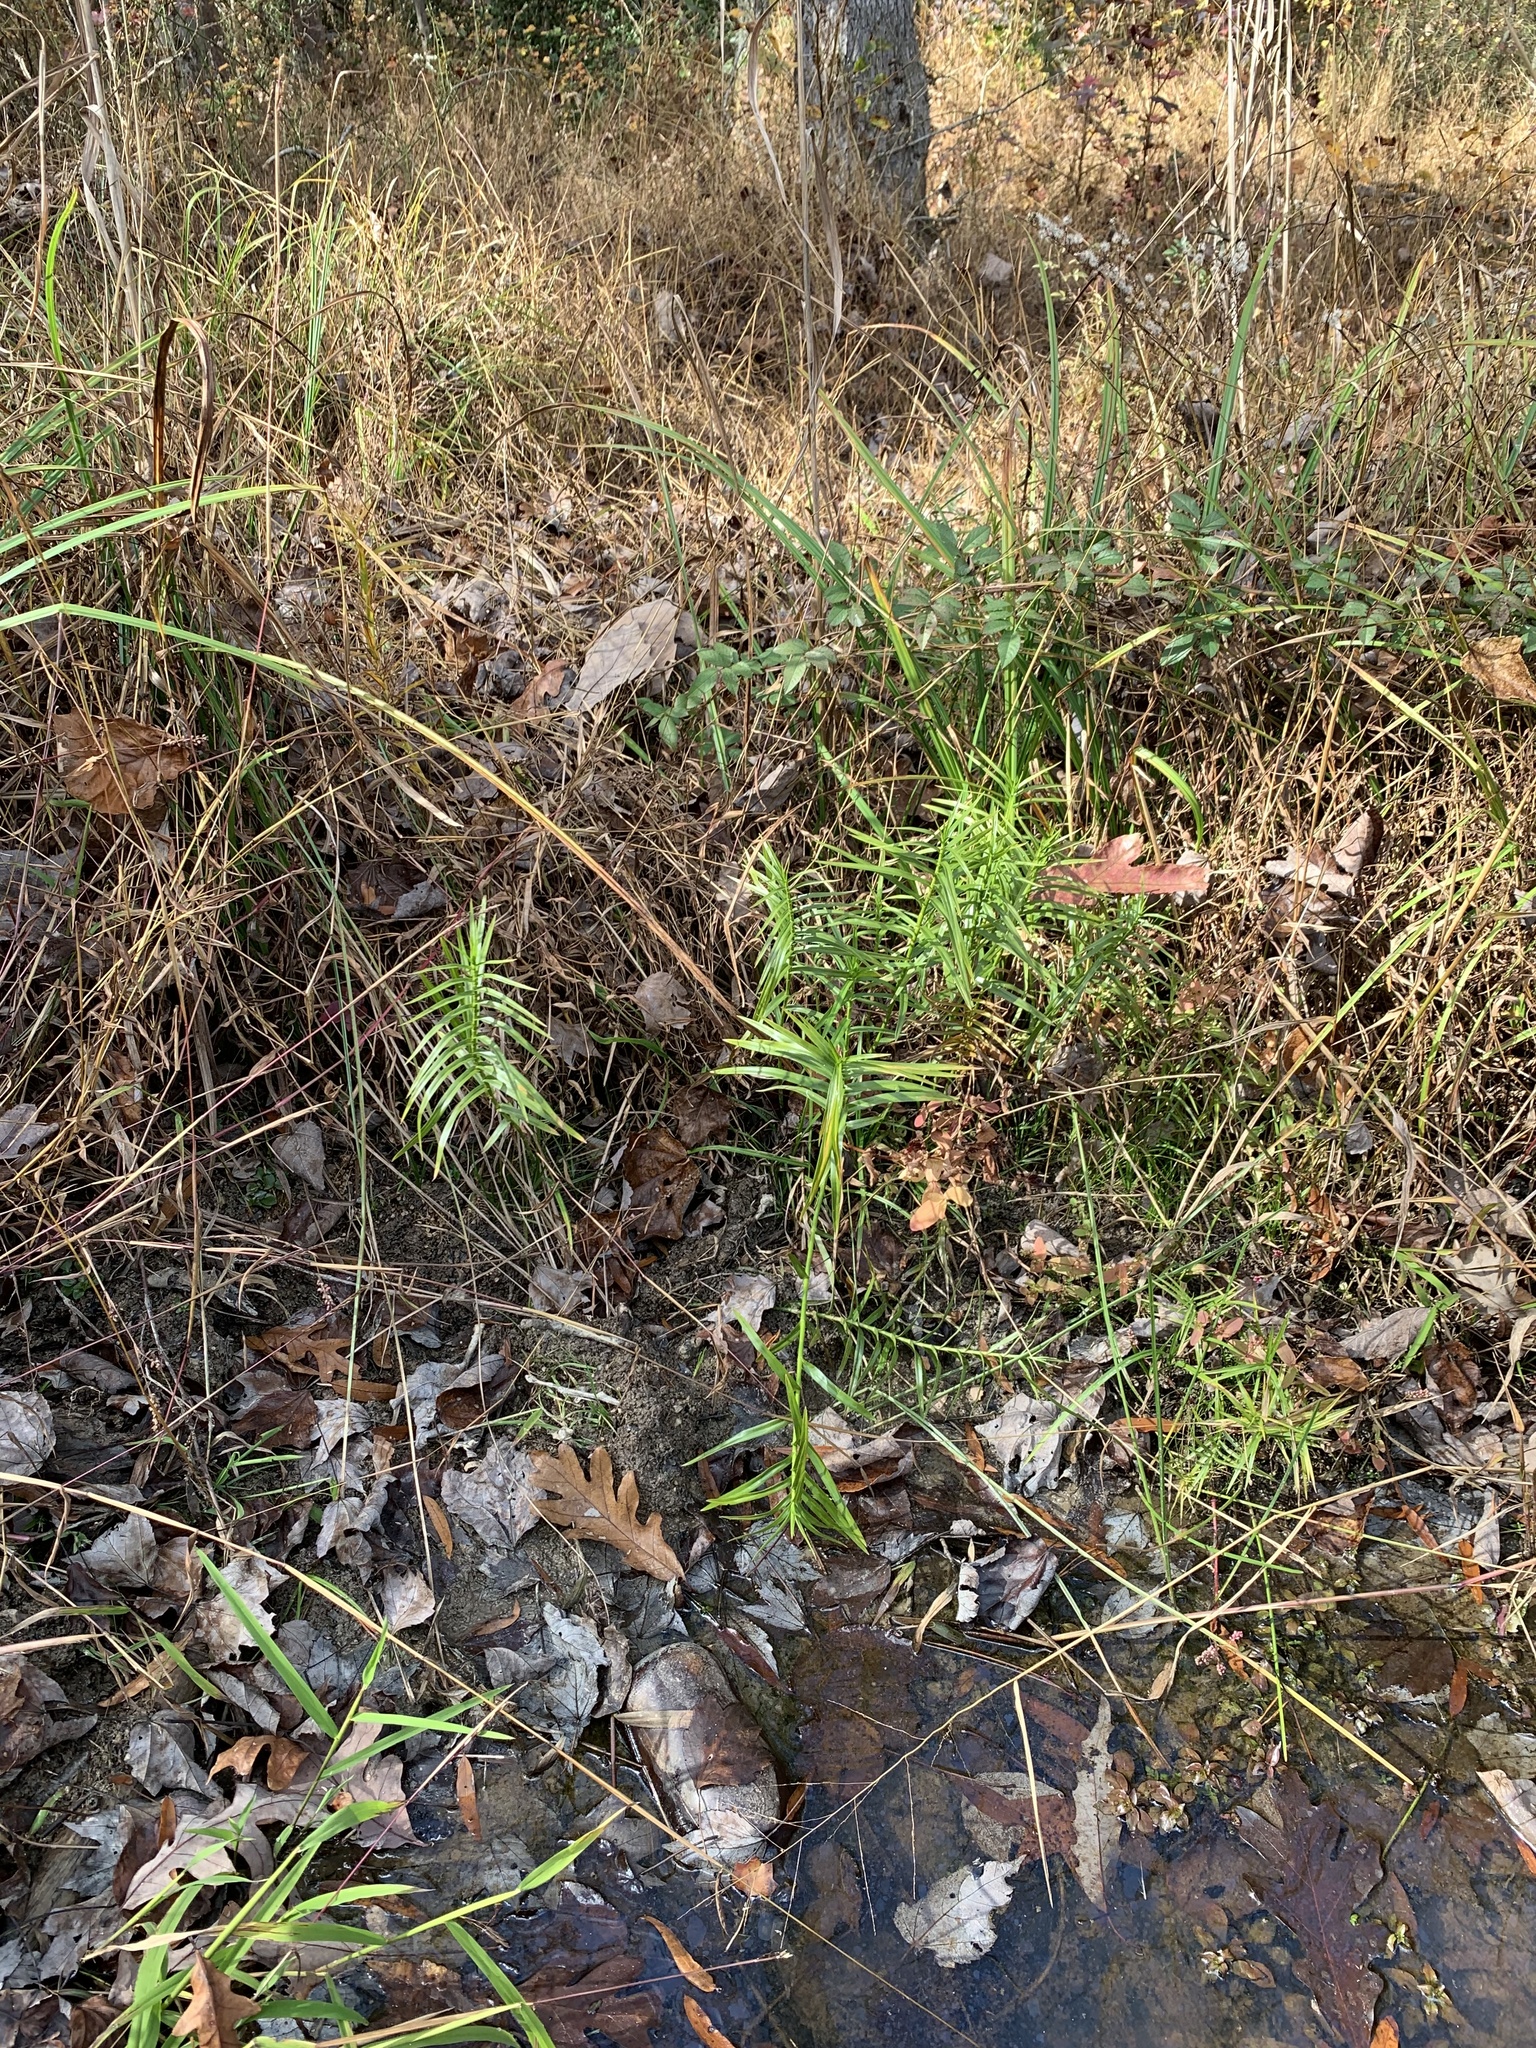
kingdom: Plantae
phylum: Tracheophyta
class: Liliopsida
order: Poales
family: Cyperaceae
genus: Dulichium
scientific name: Dulichium arundinaceum
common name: Three-way sedge
